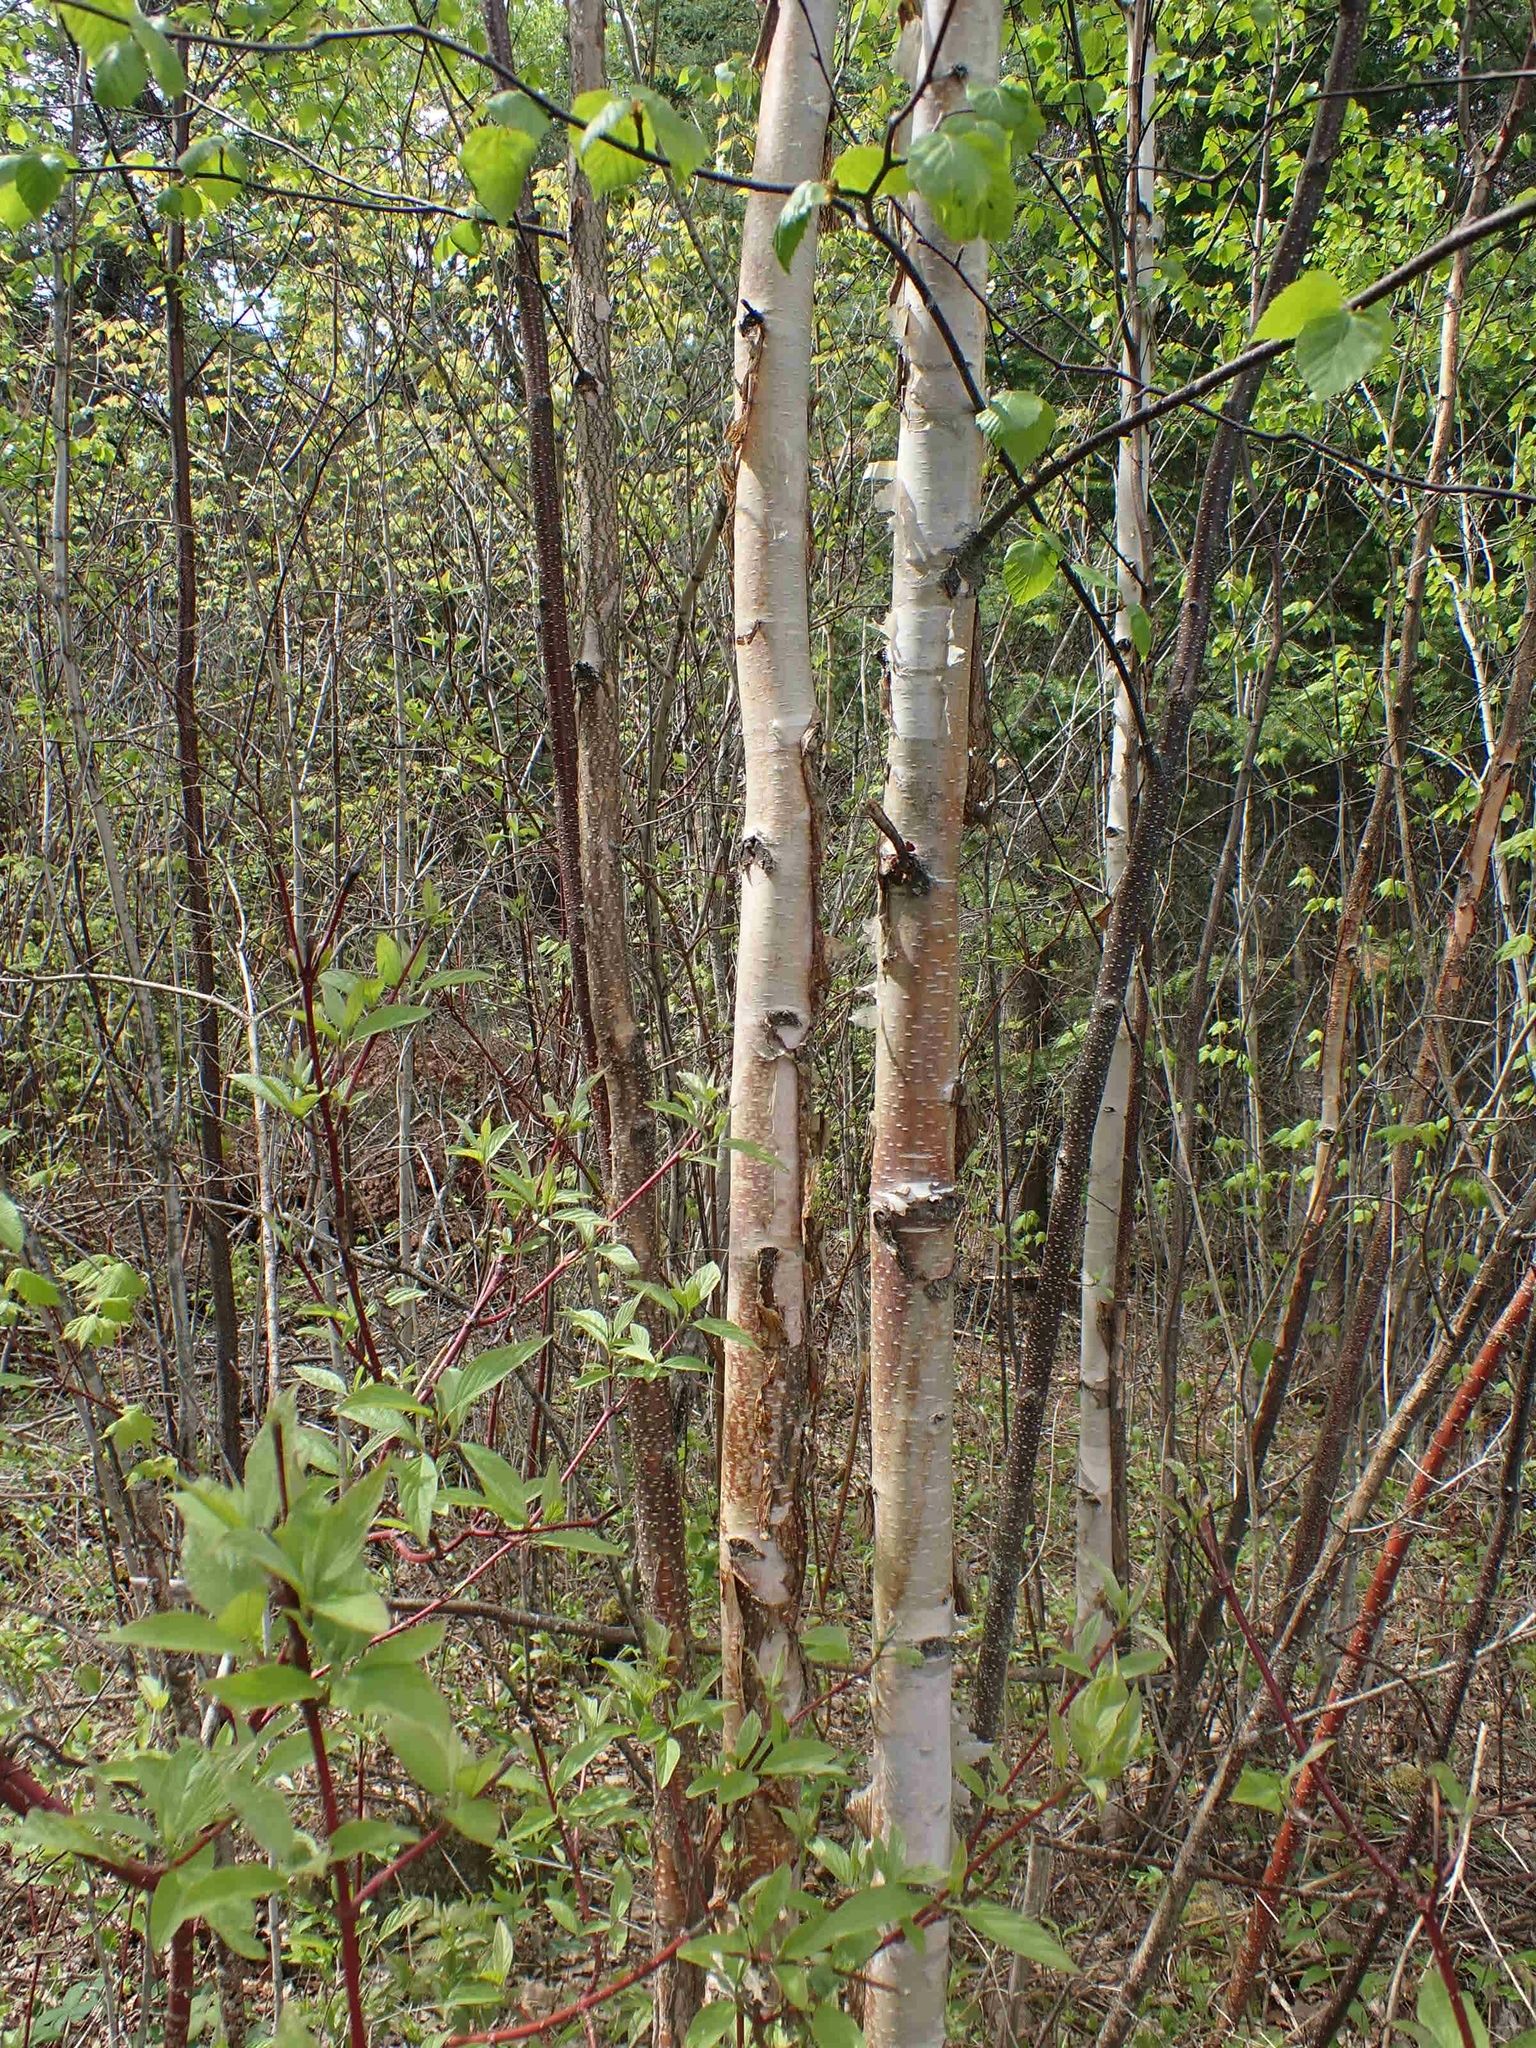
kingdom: Plantae
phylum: Tracheophyta
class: Magnoliopsida
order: Fagales
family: Betulaceae
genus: Betula
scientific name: Betula papyrifera
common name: Paper birch
